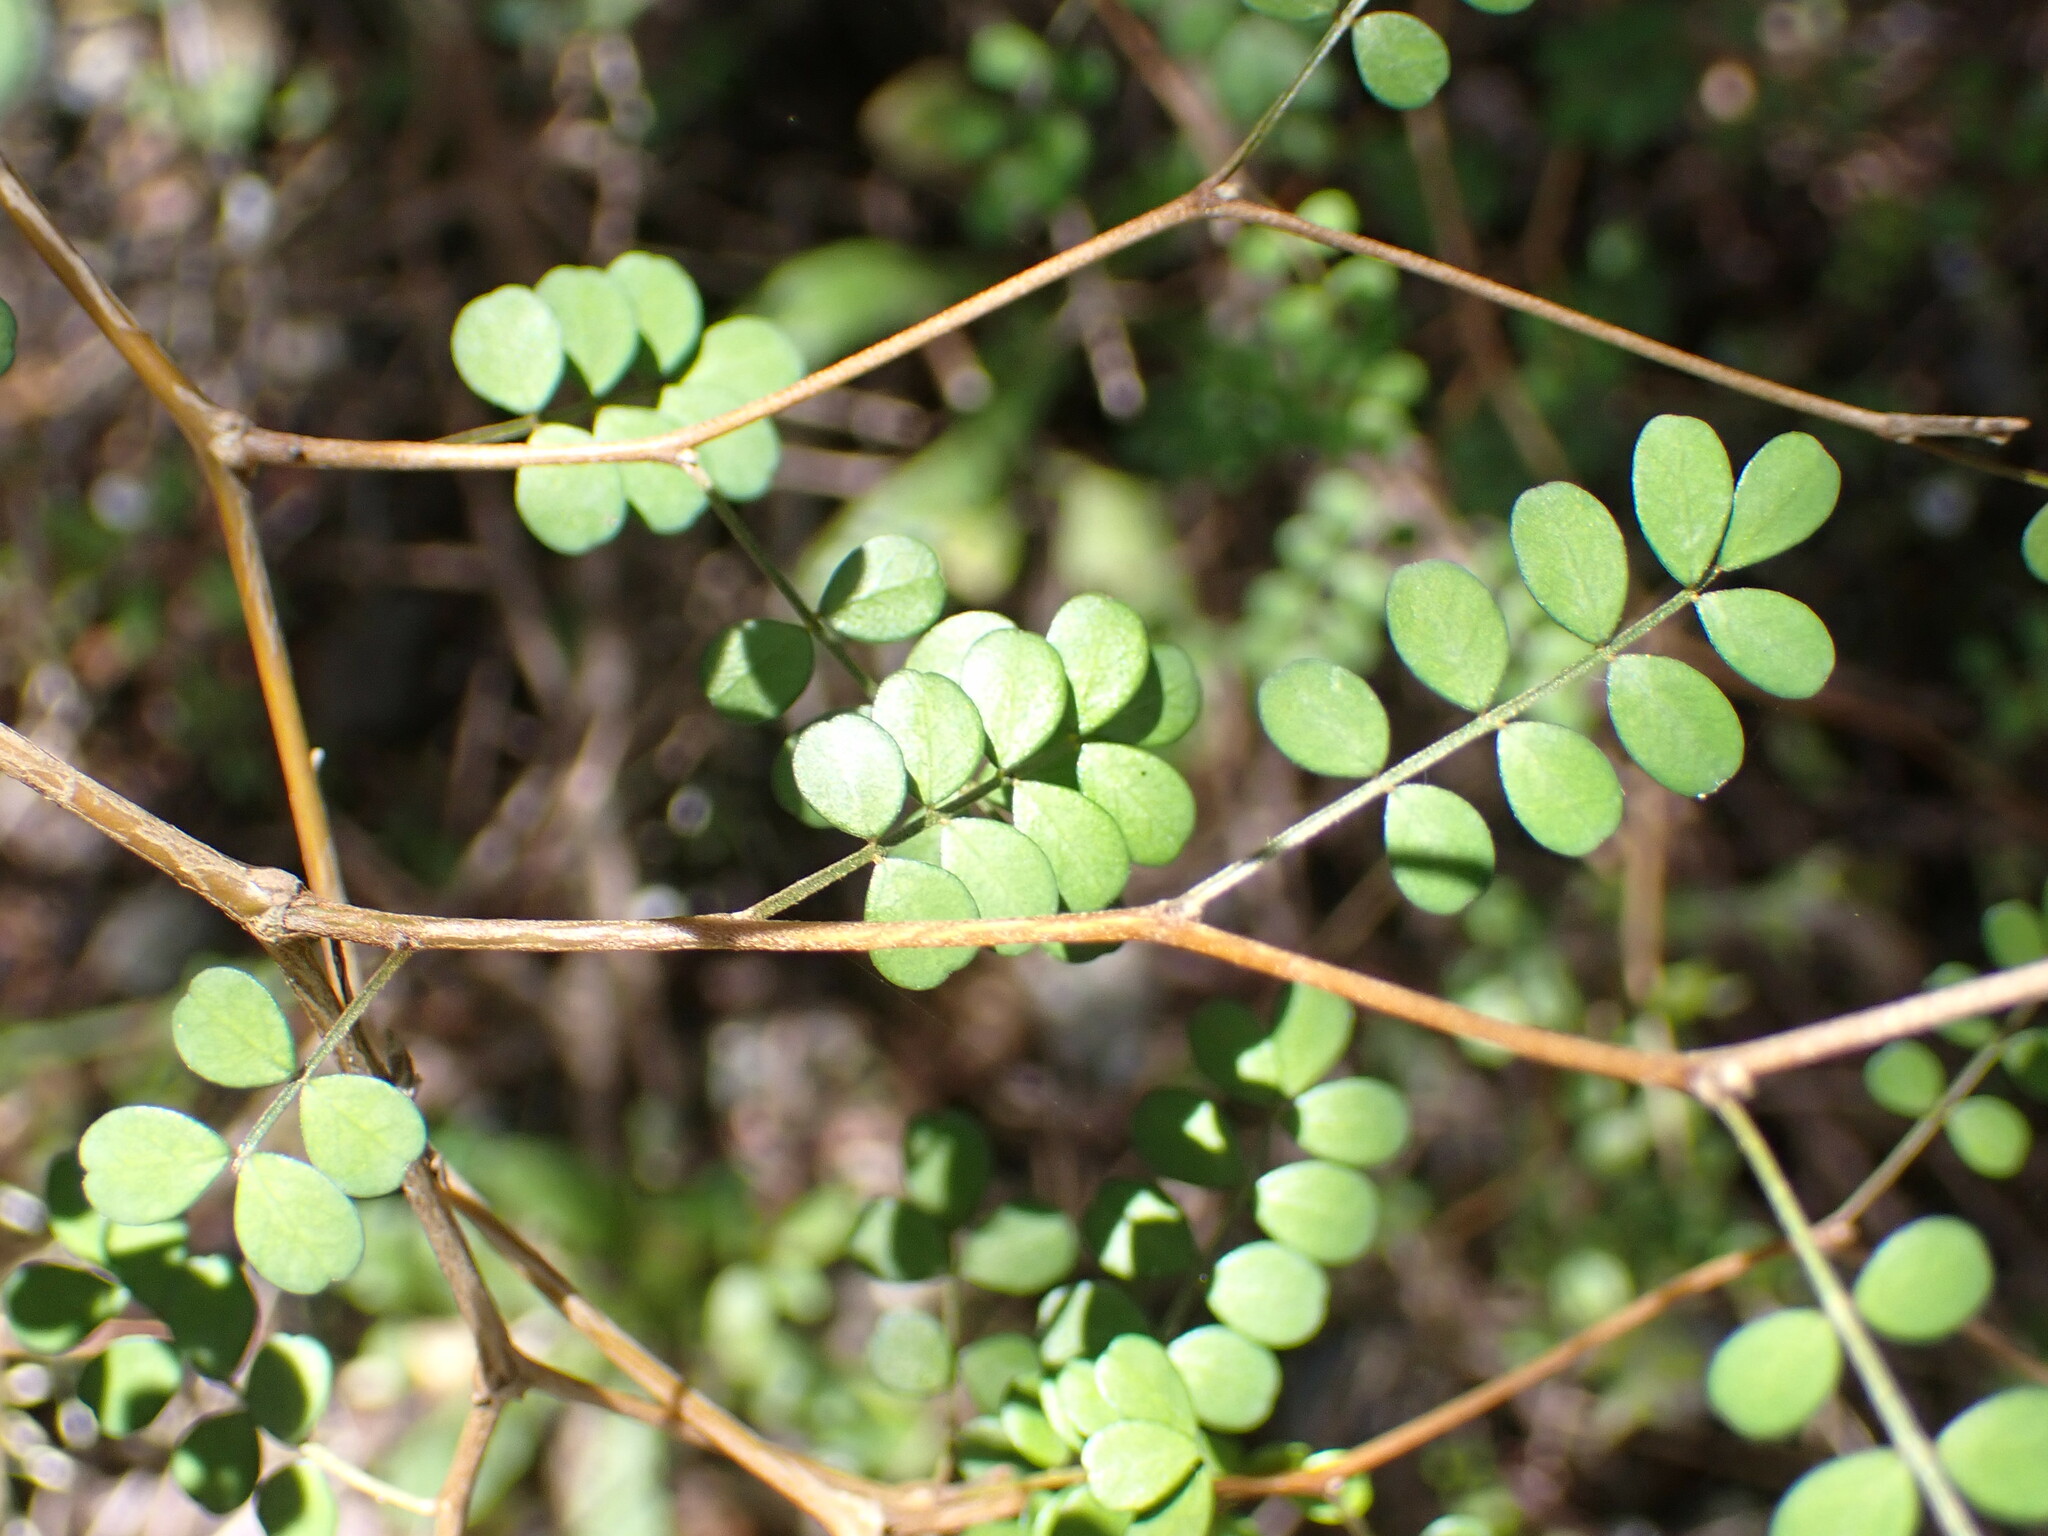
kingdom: Plantae
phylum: Tracheophyta
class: Magnoliopsida
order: Fabales
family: Fabaceae
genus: Sophora
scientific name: Sophora microphylla
